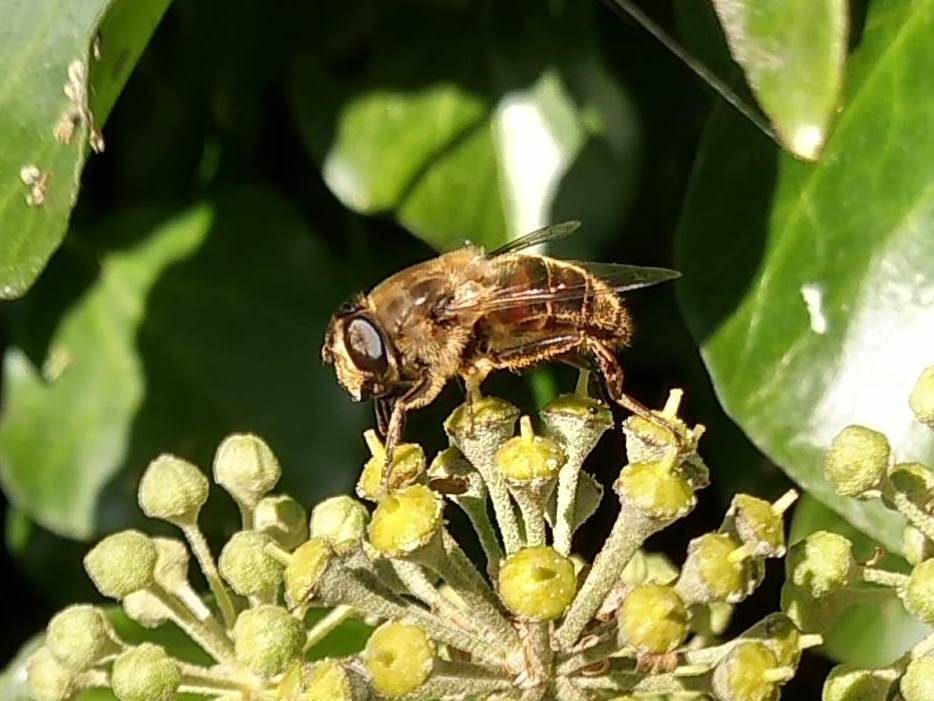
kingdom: Animalia
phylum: Arthropoda
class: Insecta
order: Diptera
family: Syrphidae
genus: Eristalis
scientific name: Eristalis tenax
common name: Drone fly
